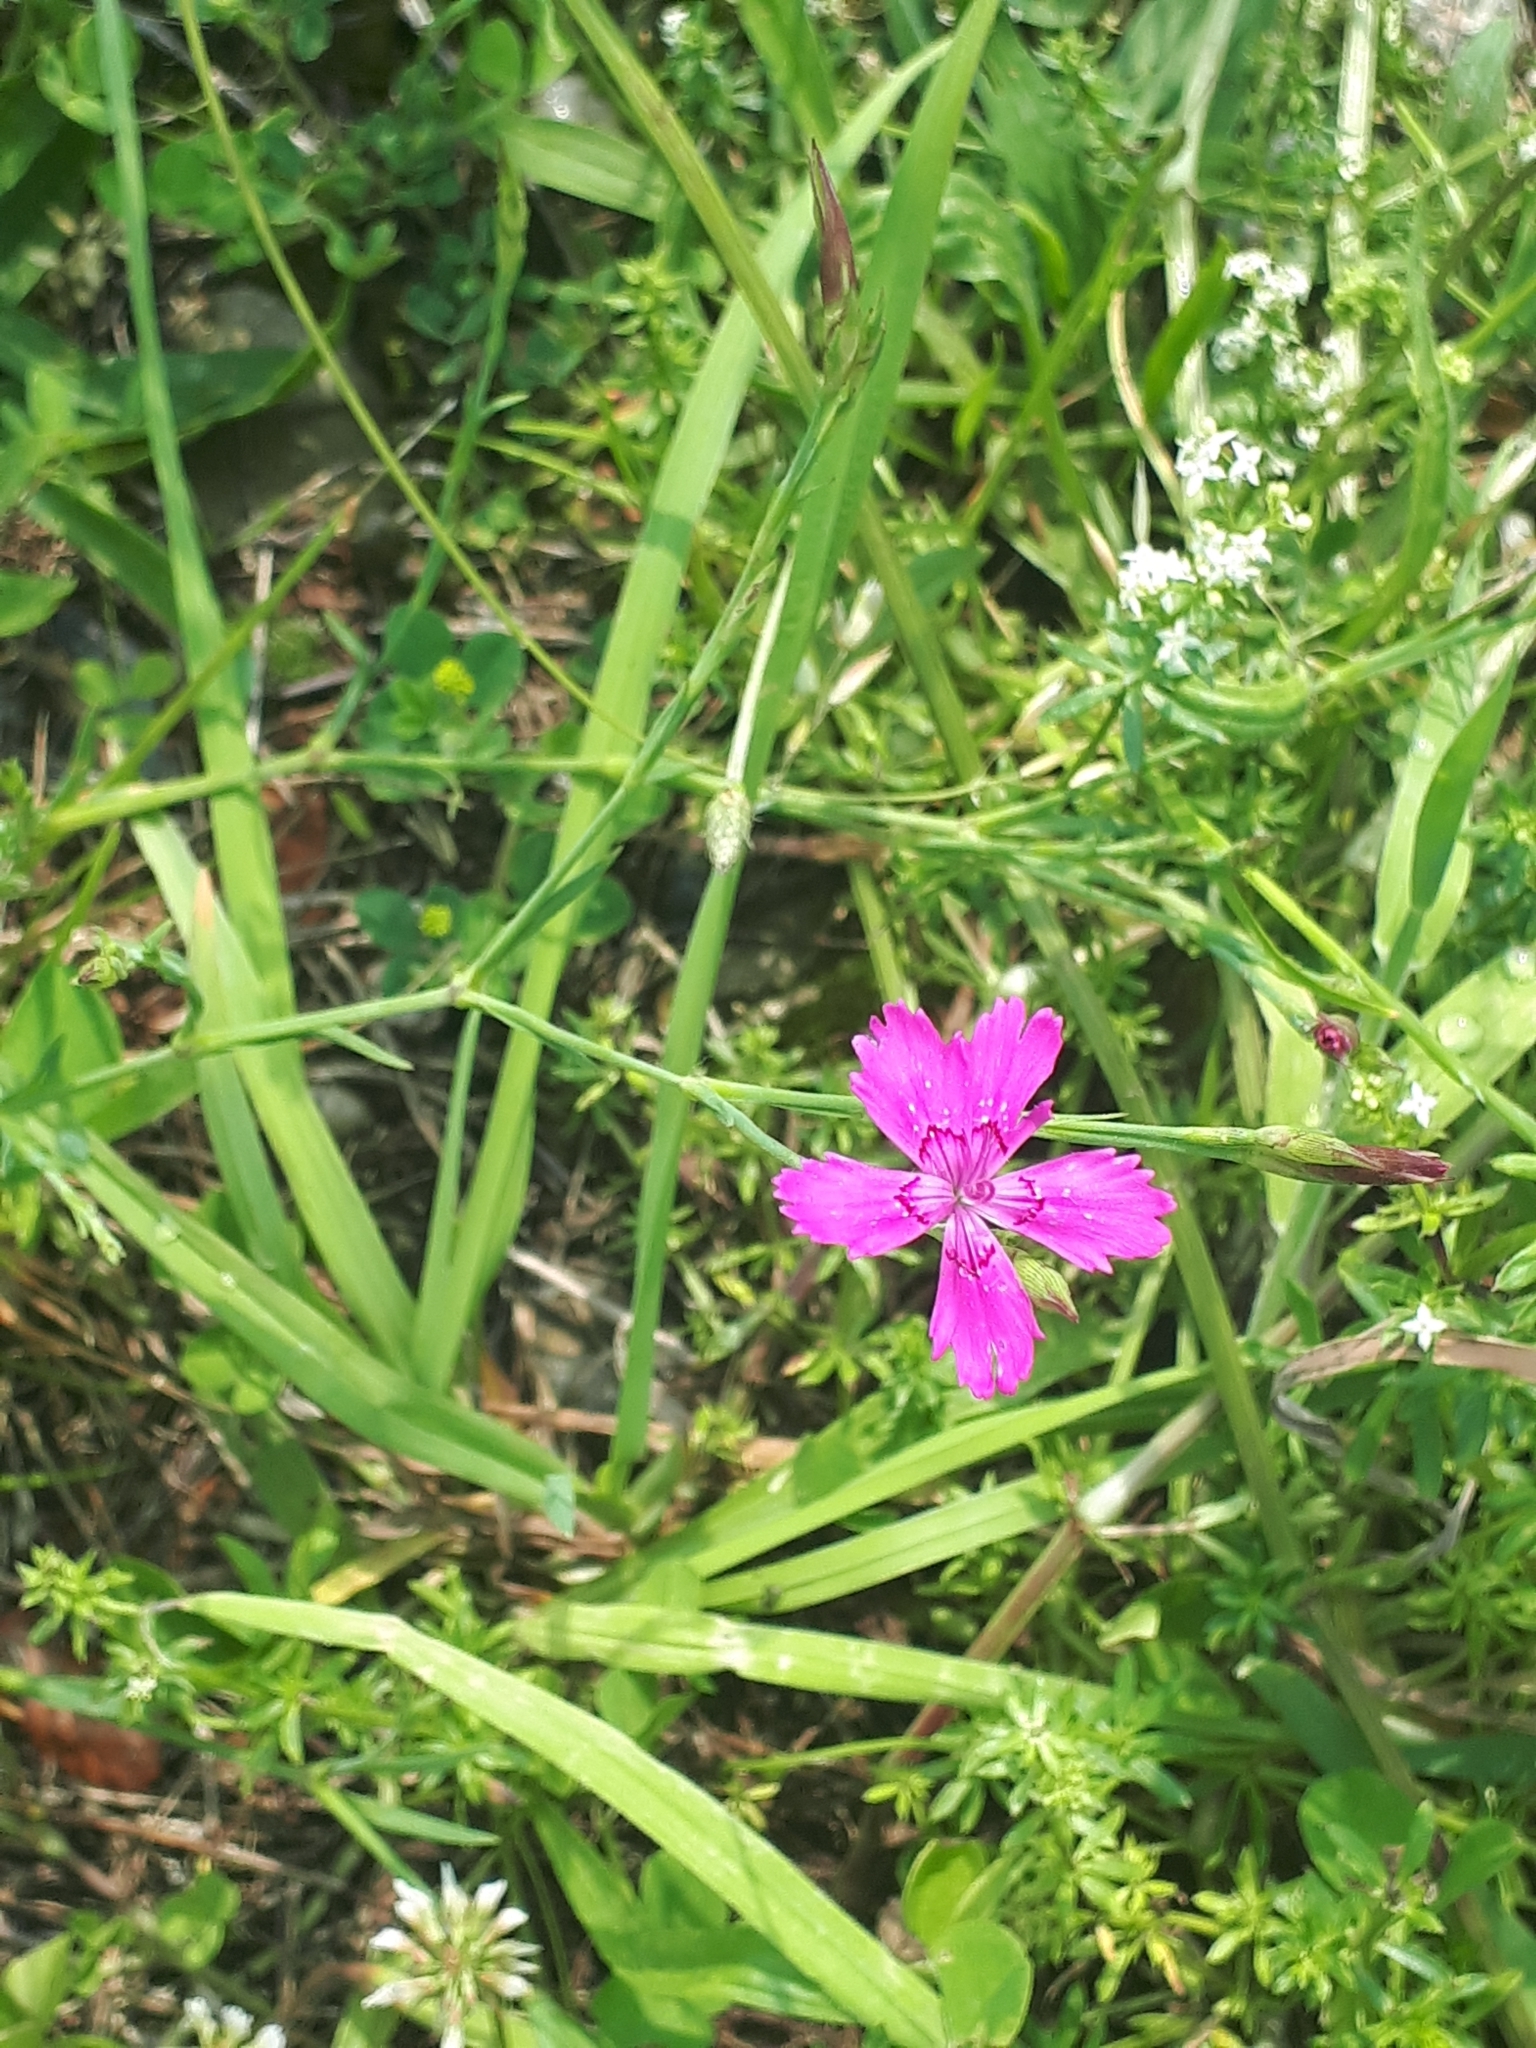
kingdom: Plantae
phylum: Tracheophyta
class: Magnoliopsida
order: Caryophyllales
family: Caryophyllaceae
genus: Dianthus
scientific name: Dianthus deltoides
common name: Maiden pink
